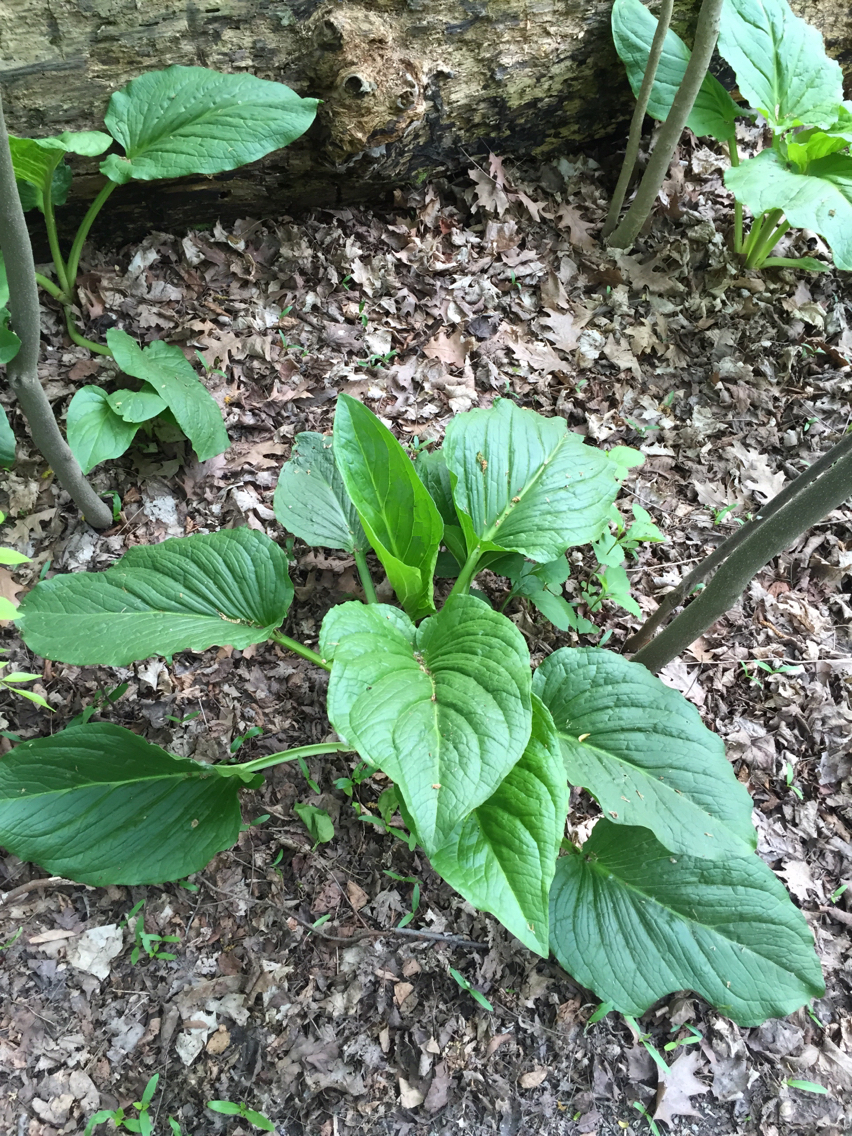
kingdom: Plantae
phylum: Tracheophyta
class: Liliopsida
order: Alismatales
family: Araceae
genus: Symplocarpus
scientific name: Symplocarpus foetidus
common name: Eastern skunk cabbage
